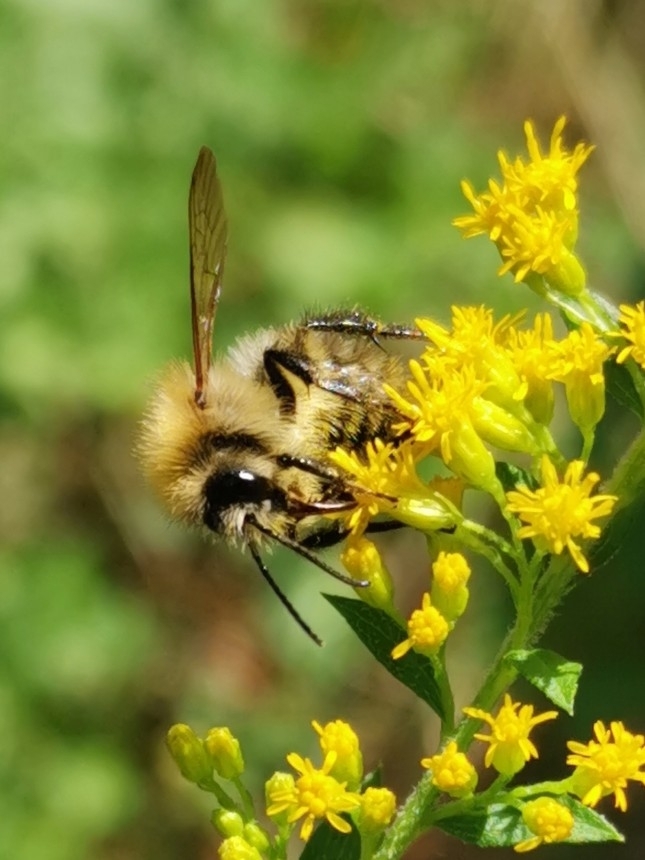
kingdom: Animalia
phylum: Arthropoda
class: Insecta
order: Hymenoptera
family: Apidae
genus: Bombus
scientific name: Bombus pascuorum
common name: Common carder bee
